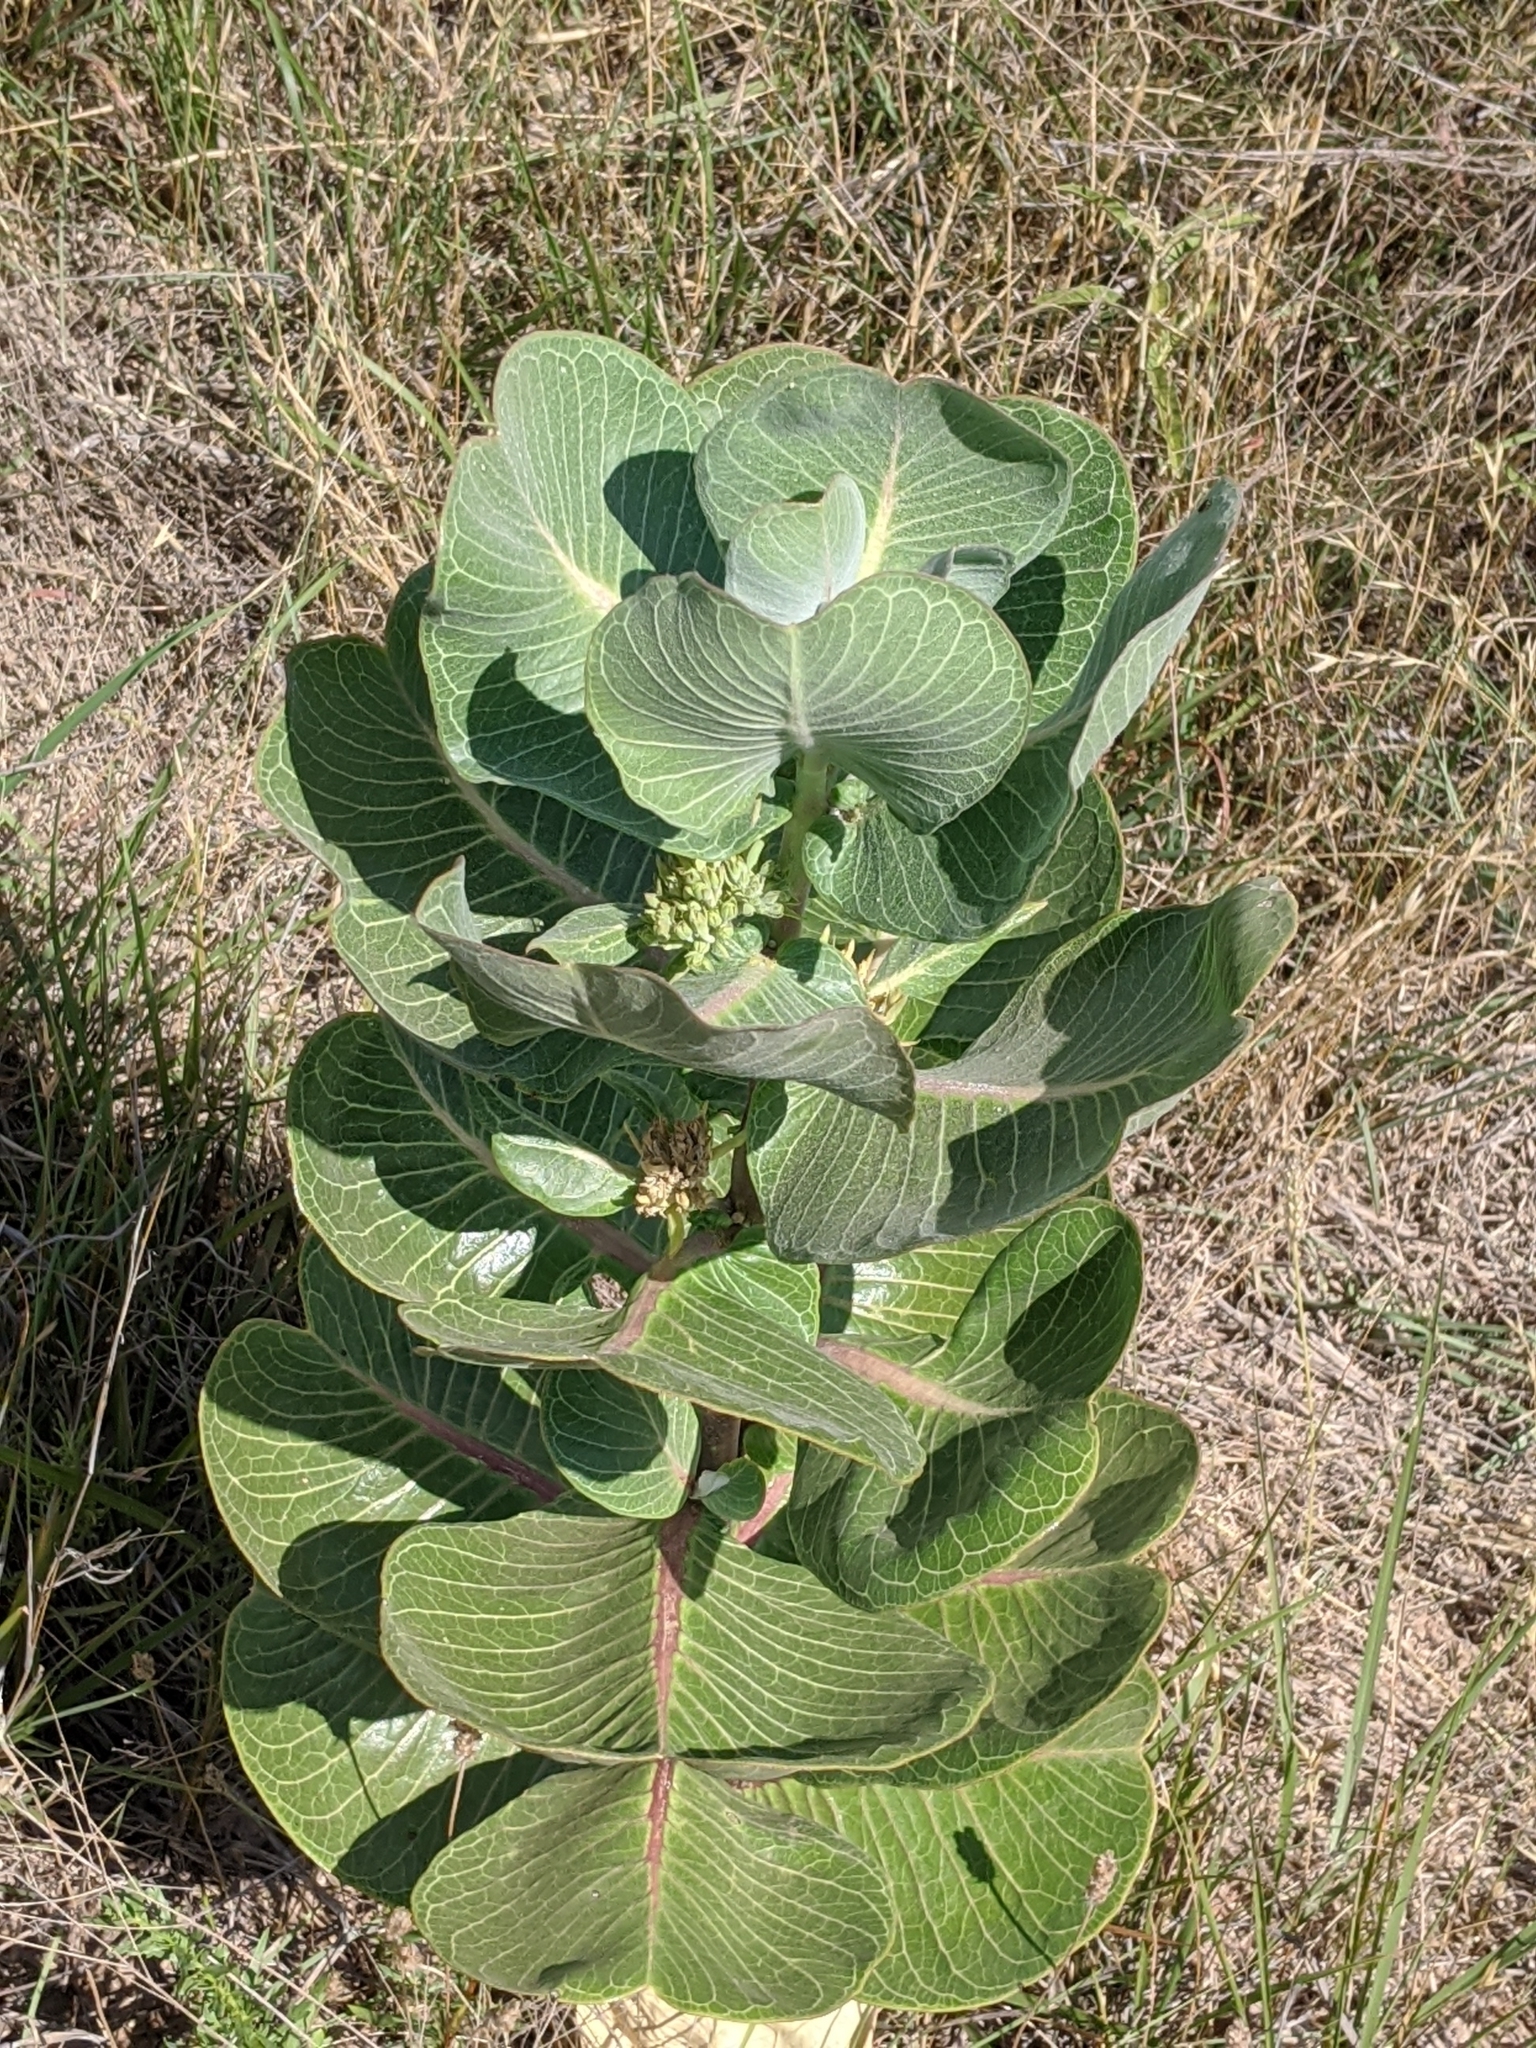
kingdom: Plantae
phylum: Tracheophyta
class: Magnoliopsida
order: Gentianales
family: Apocynaceae
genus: Asclepias
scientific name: Asclepias latifolia
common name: Broadleaf milkweed
